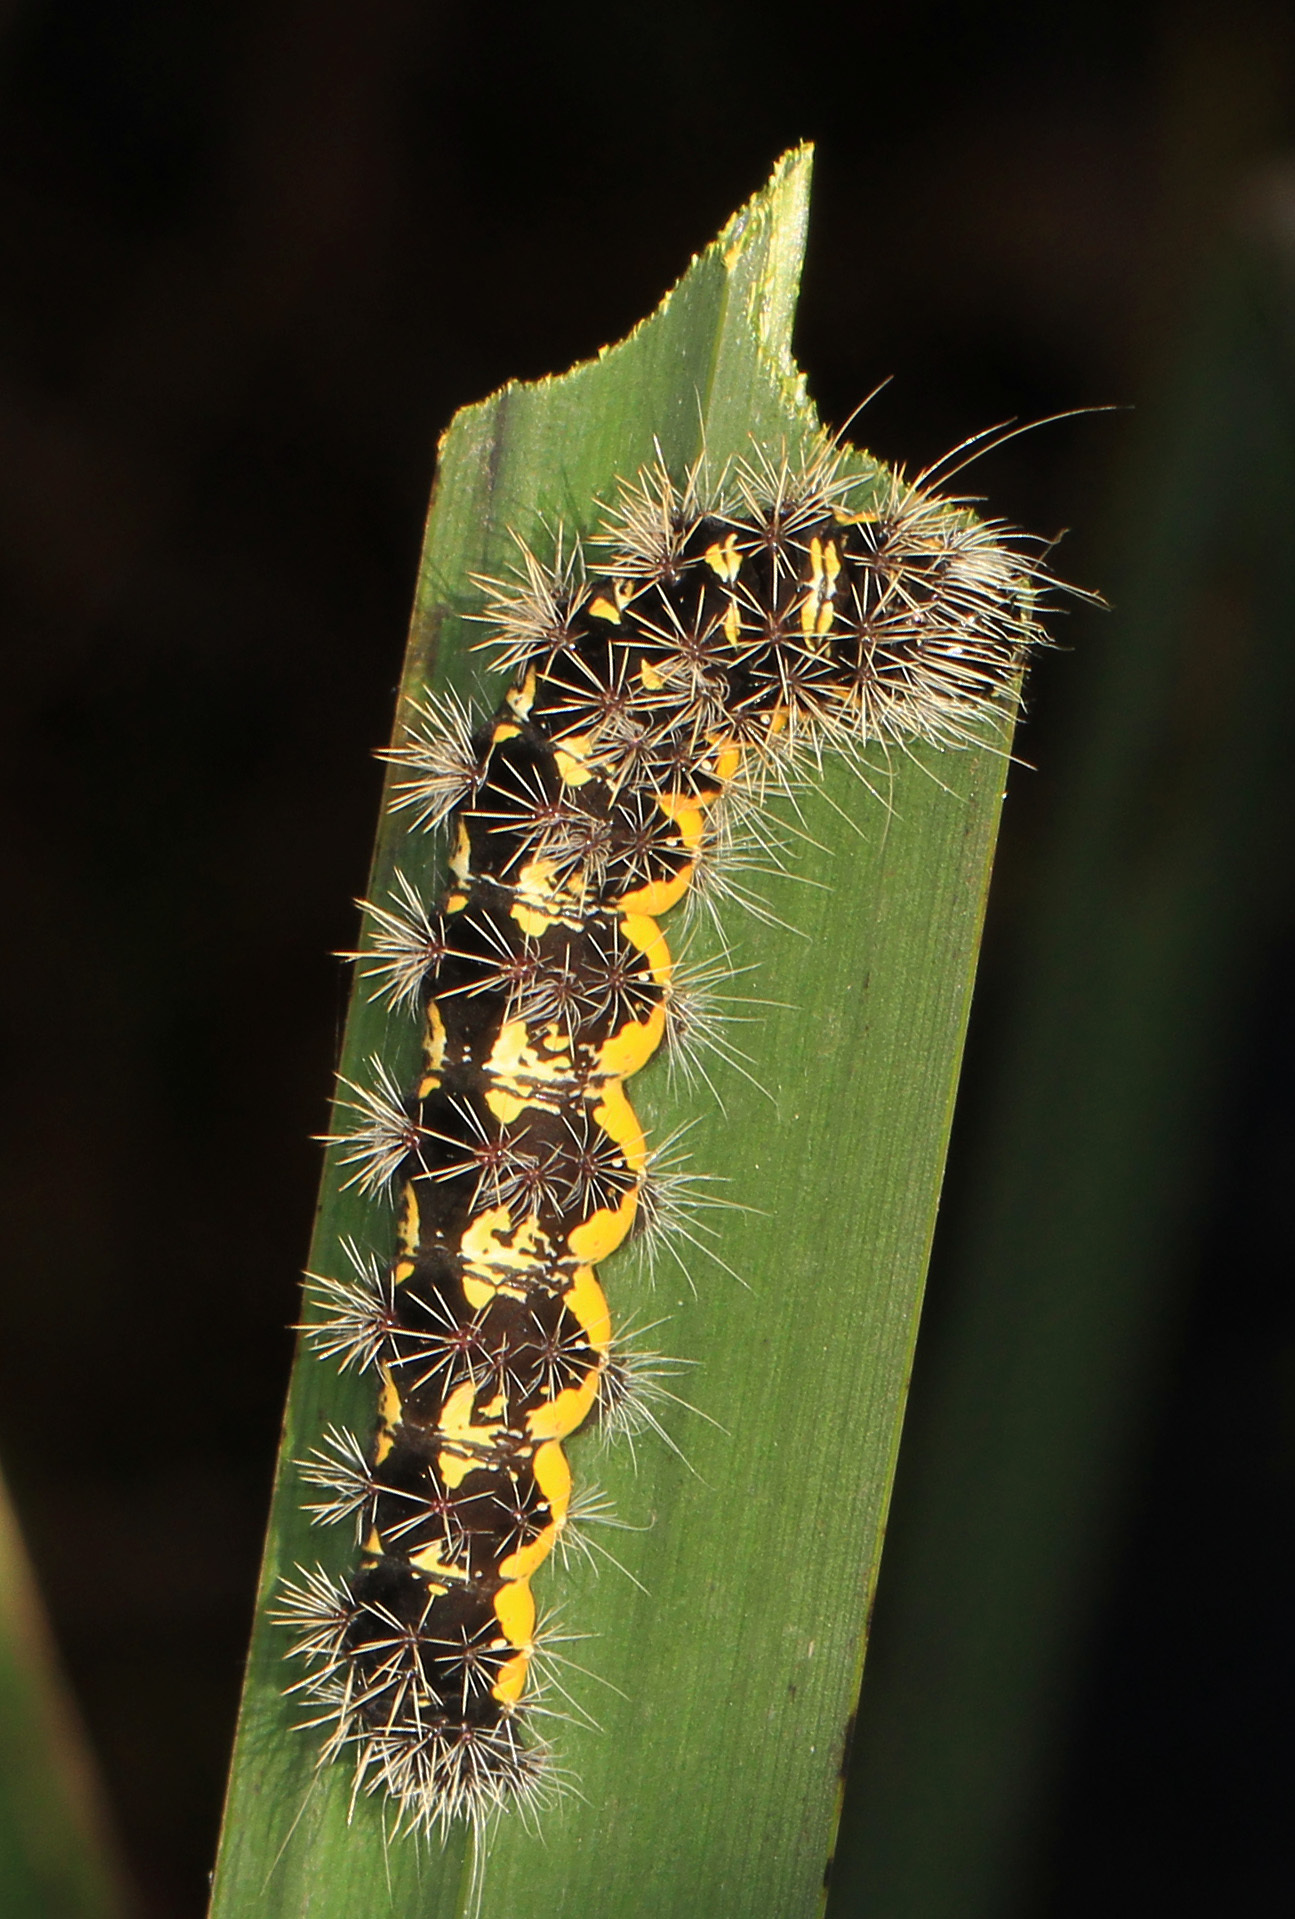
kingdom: Animalia
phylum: Arthropoda
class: Insecta
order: Lepidoptera
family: Noctuidae
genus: Acronicta
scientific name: Acronicta oblinita
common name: Smeared dagger
